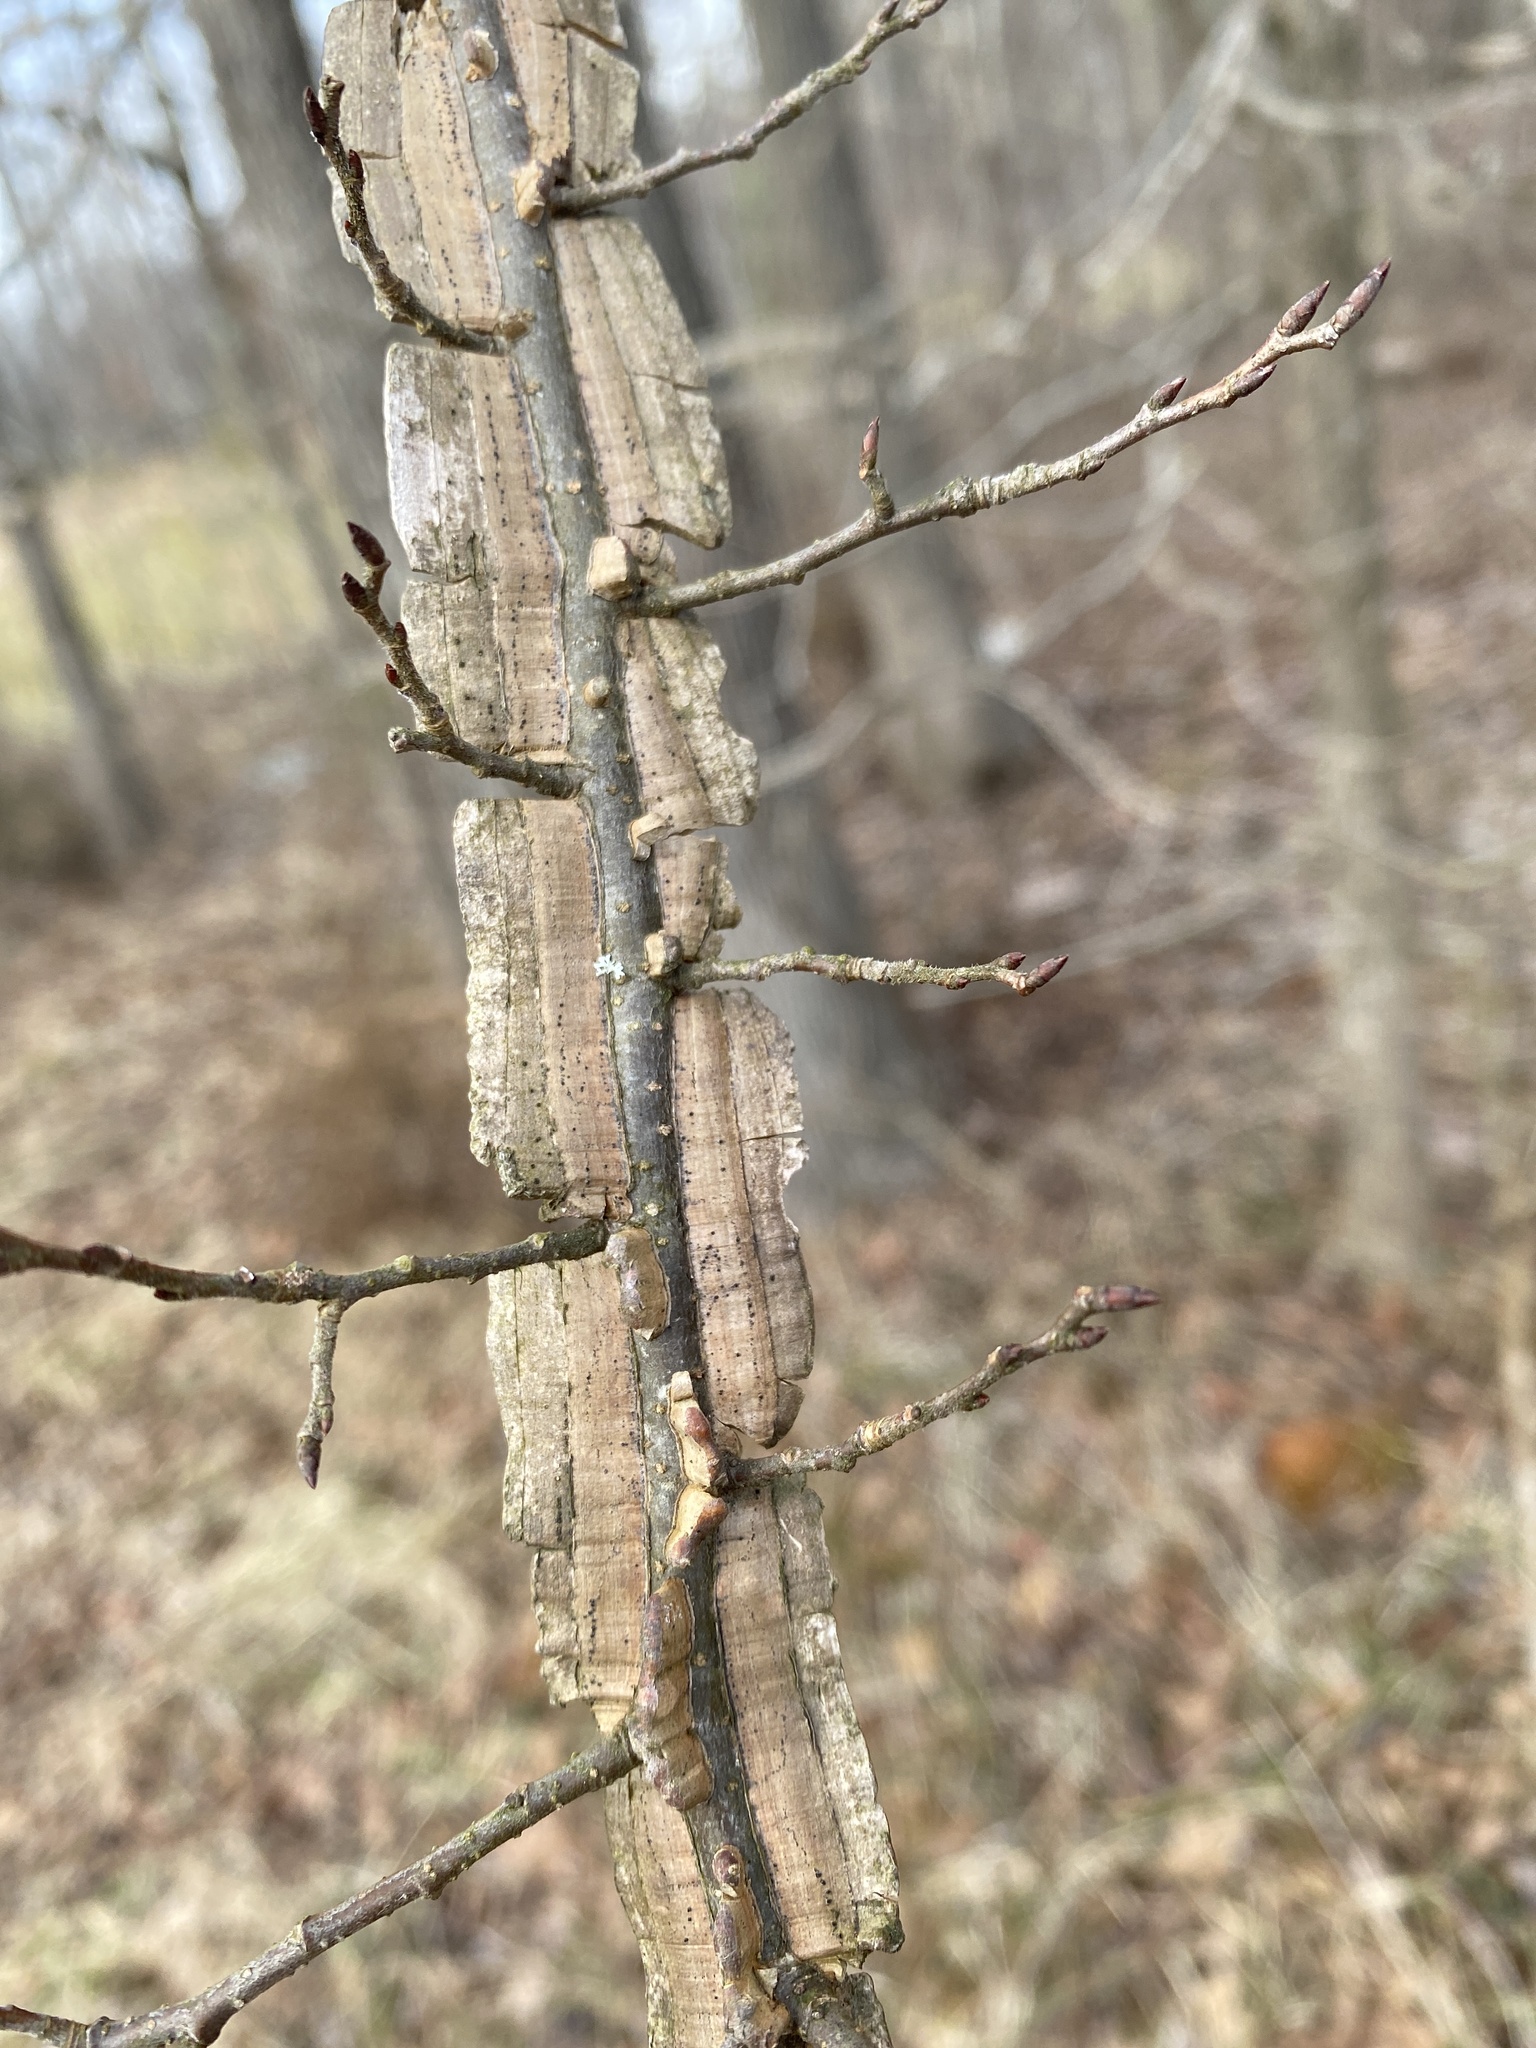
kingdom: Plantae
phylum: Tracheophyta
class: Magnoliopsida
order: Rosales
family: Ulmaceae
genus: Ulmus
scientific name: Ulmus alata
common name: Winged elm
